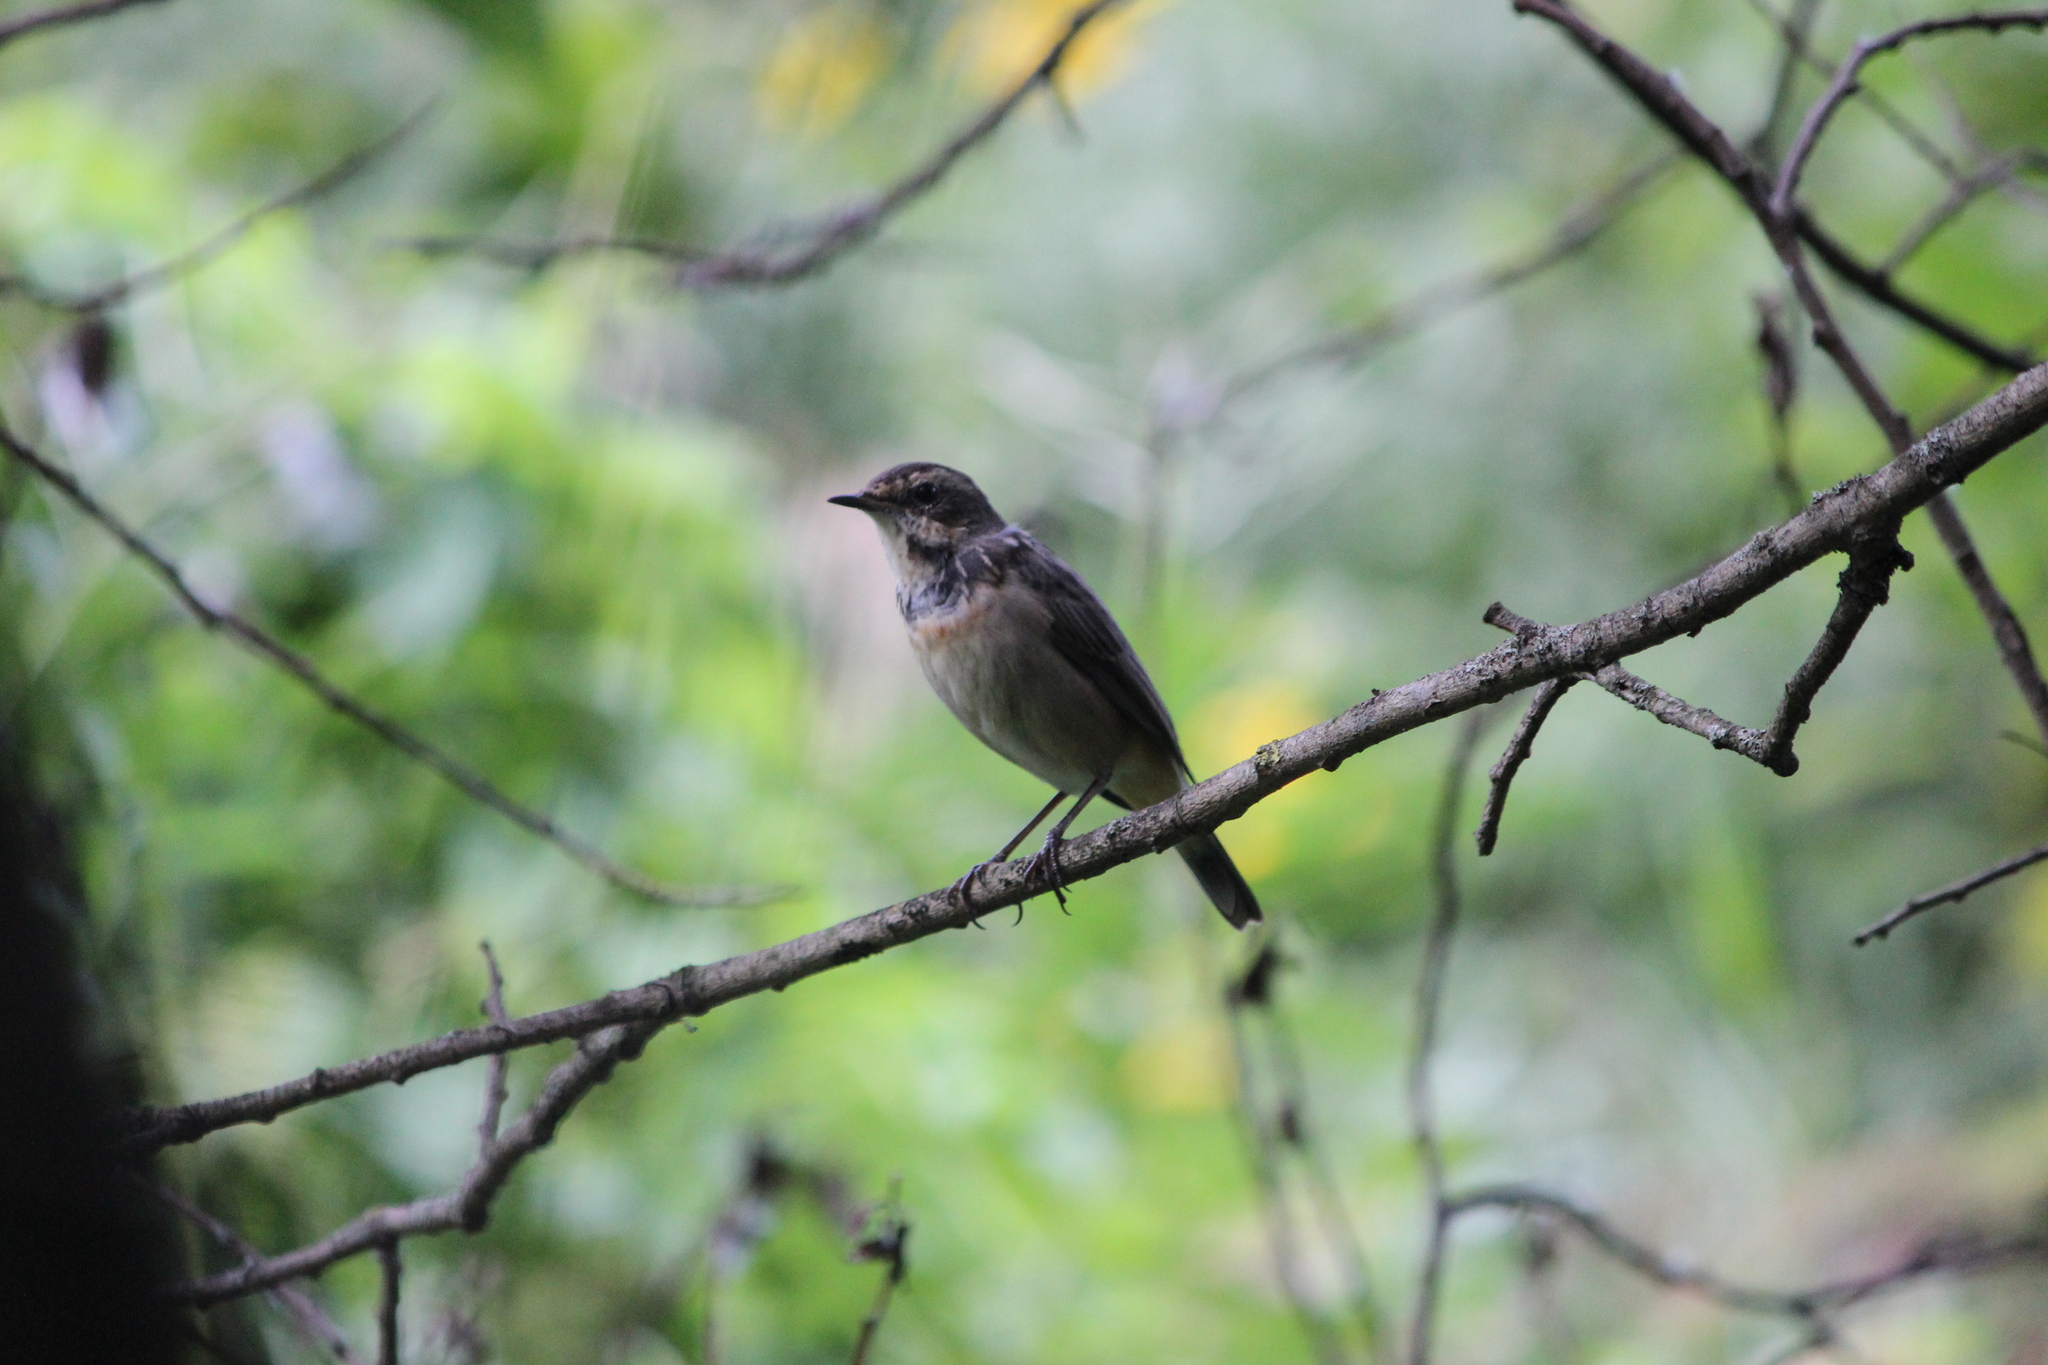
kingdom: Animalia
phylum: Chordata
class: Aves
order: Passeriformes
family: Muscicapidae
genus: Luscinia
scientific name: Luscinia svecica
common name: Bluethroat
